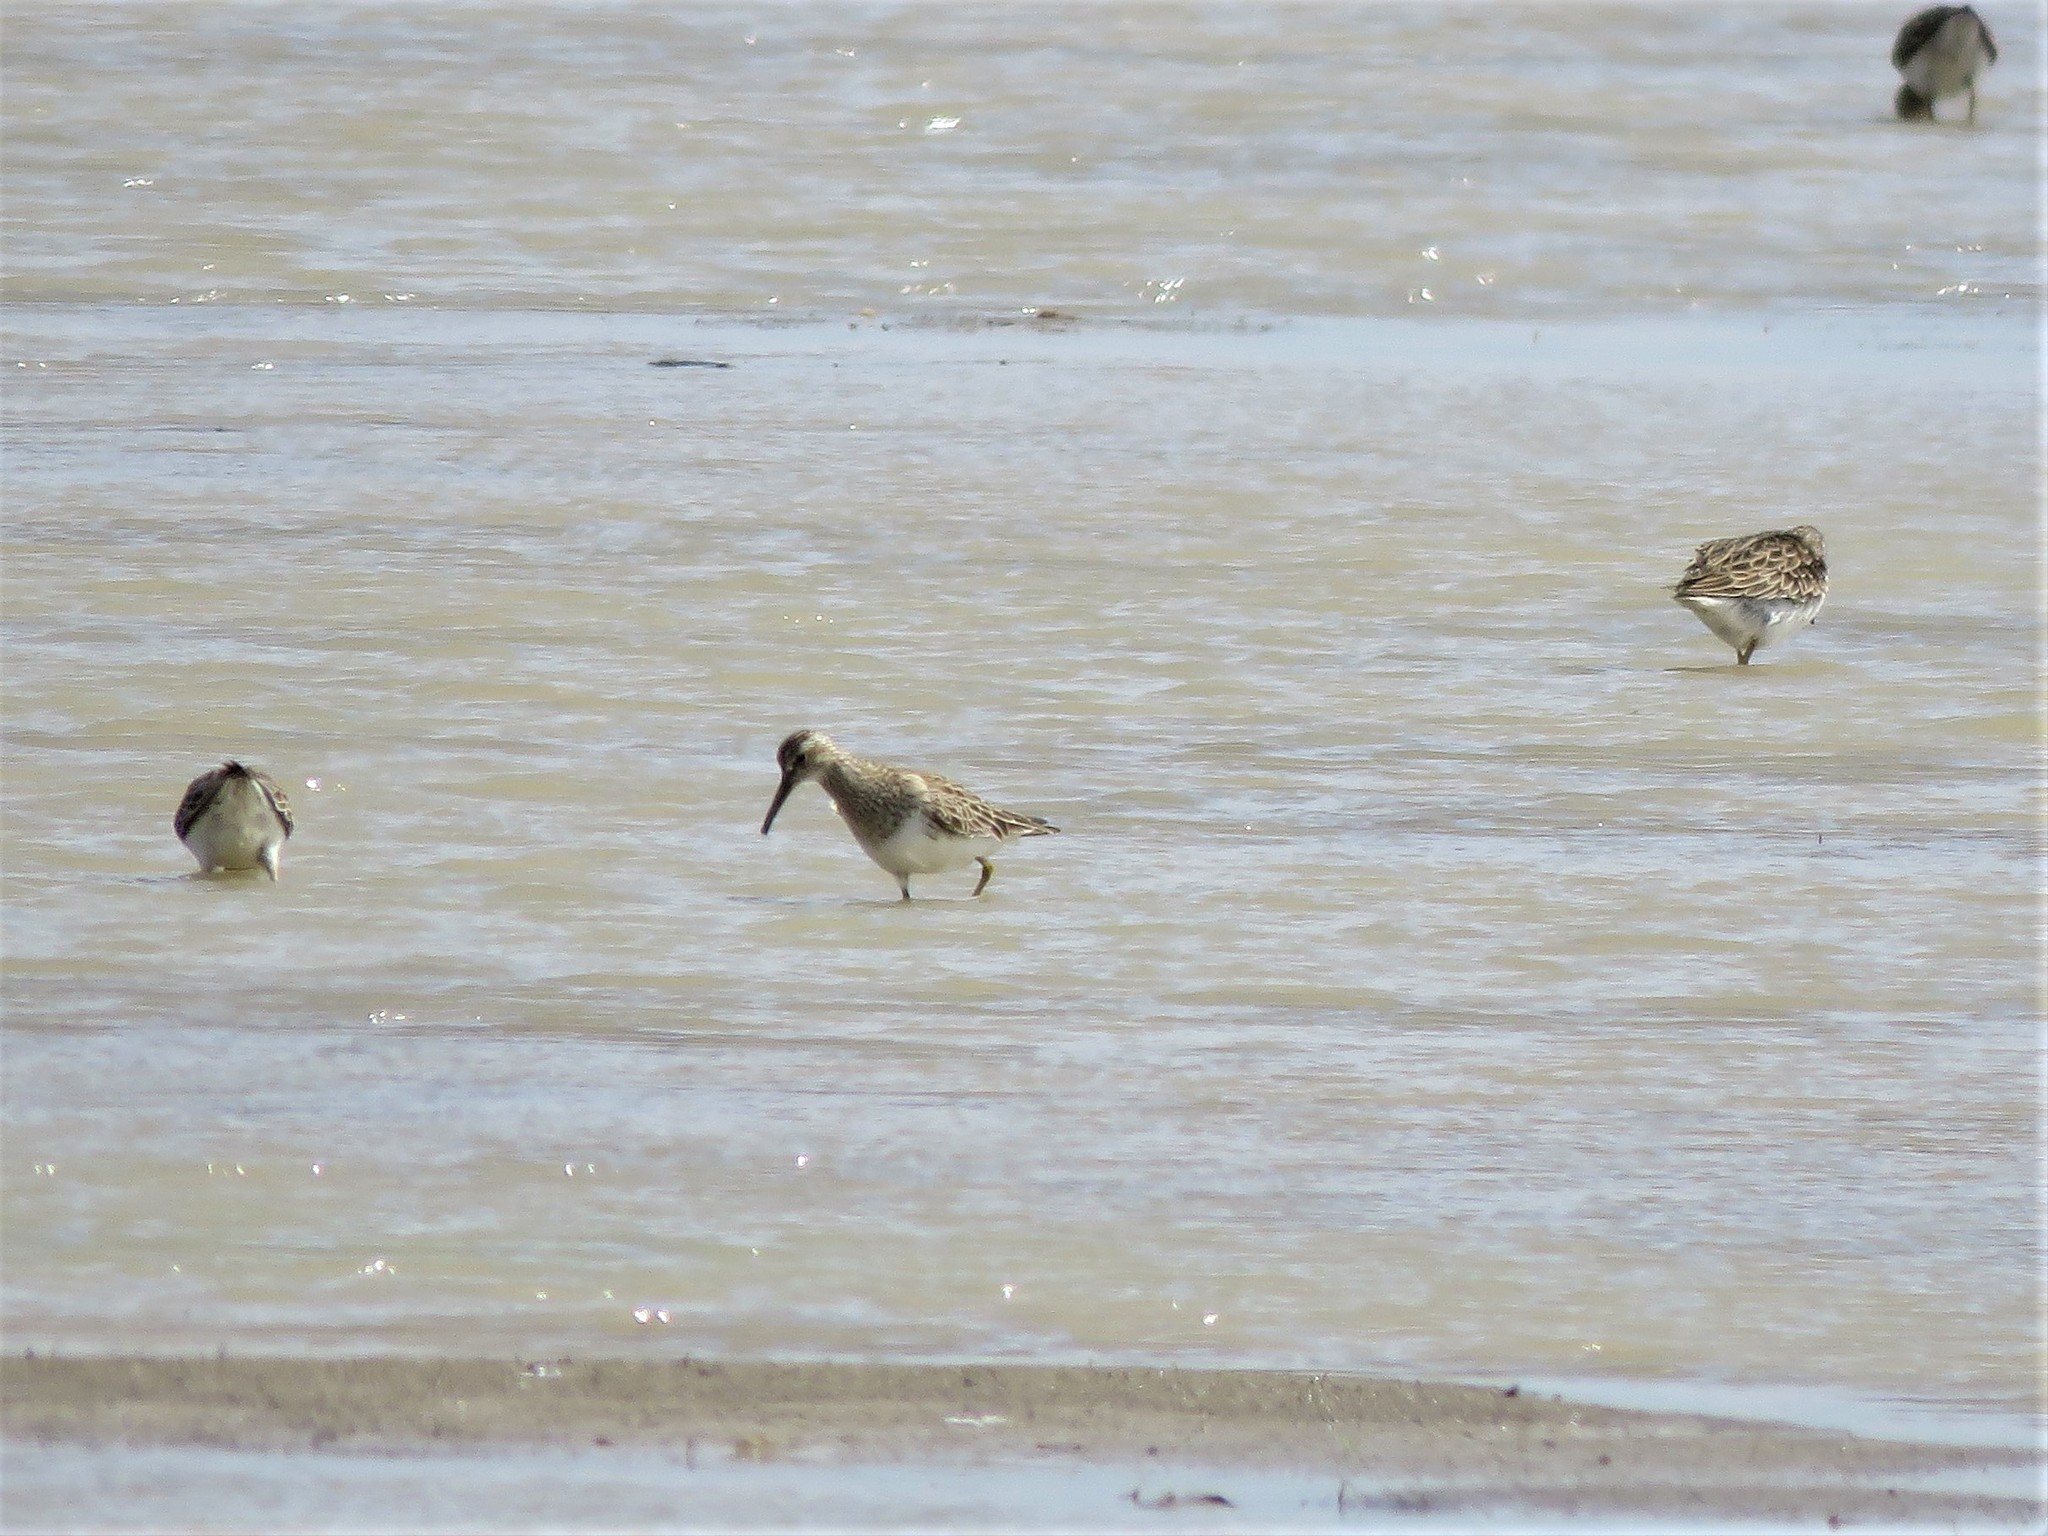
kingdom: Animalia
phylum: Chordata
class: Aves
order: Charadriiformes
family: Scolopacidae
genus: Calidris
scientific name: Calidris melanotos
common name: Pectoral sandpiper
